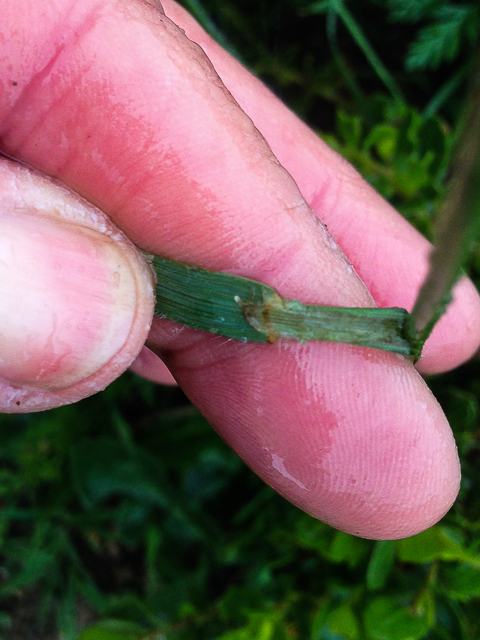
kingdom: Plantae
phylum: Tracheophyta
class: Liliopsida
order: Poales
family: Poaceae
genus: Bromus
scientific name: Bromus carinatus
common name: Mountain brome
